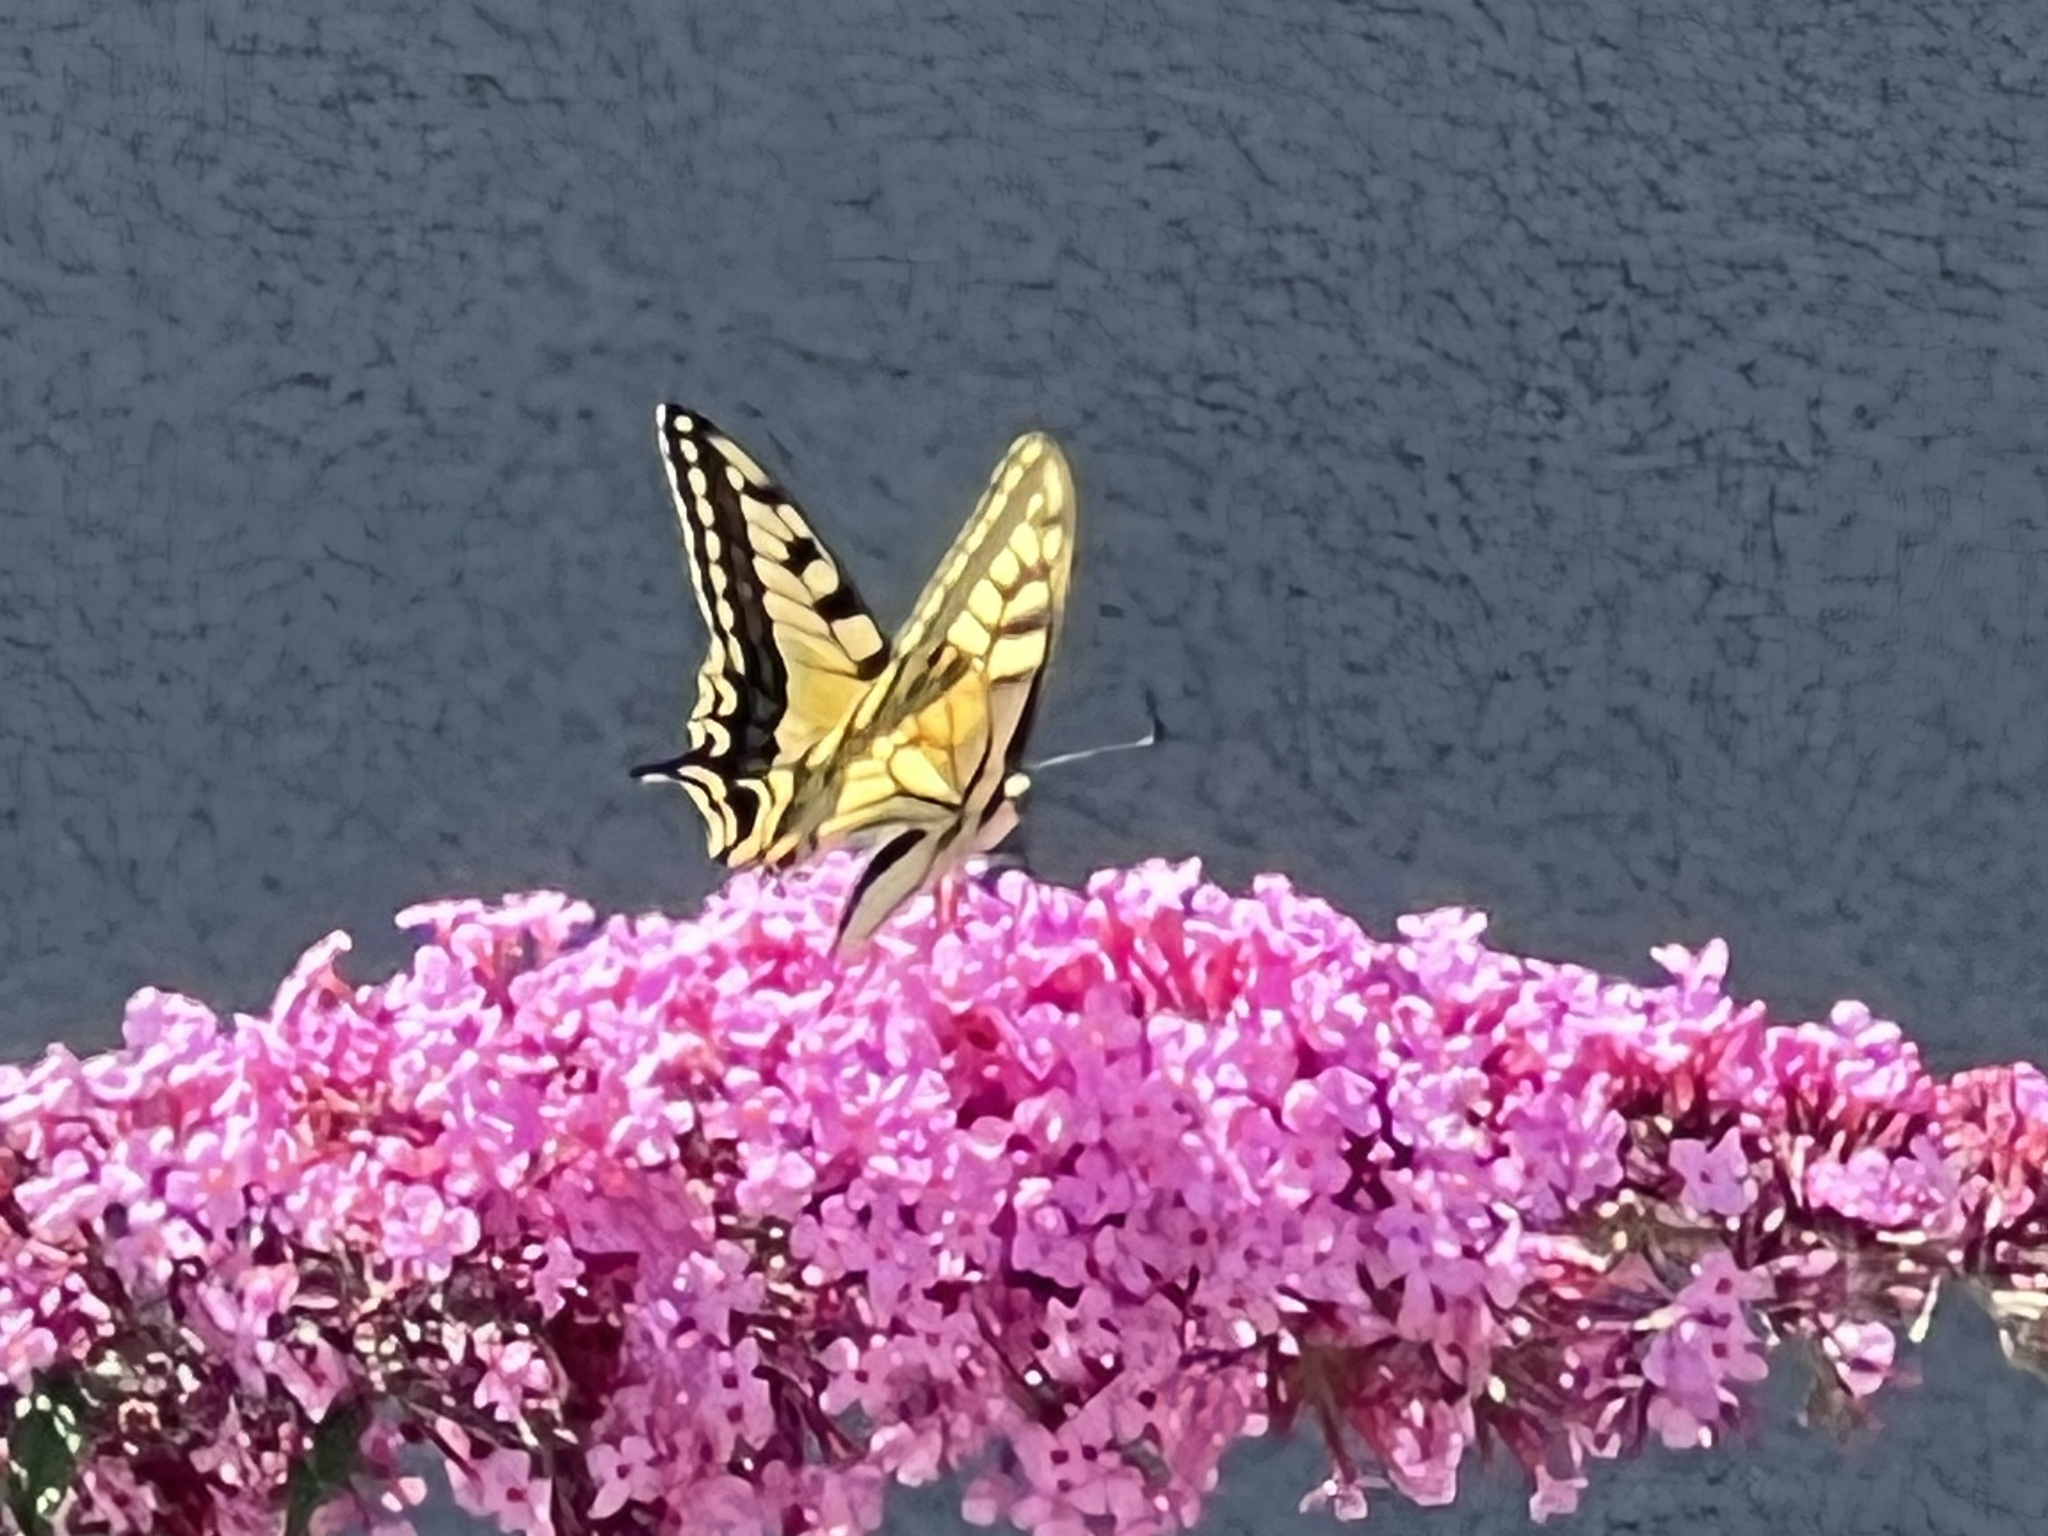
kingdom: Animalia
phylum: Arthropoda
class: Insecta
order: Lepidoptera
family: Papilionidae
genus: Papilio
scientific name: Papilio machaon
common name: Swallowtail
